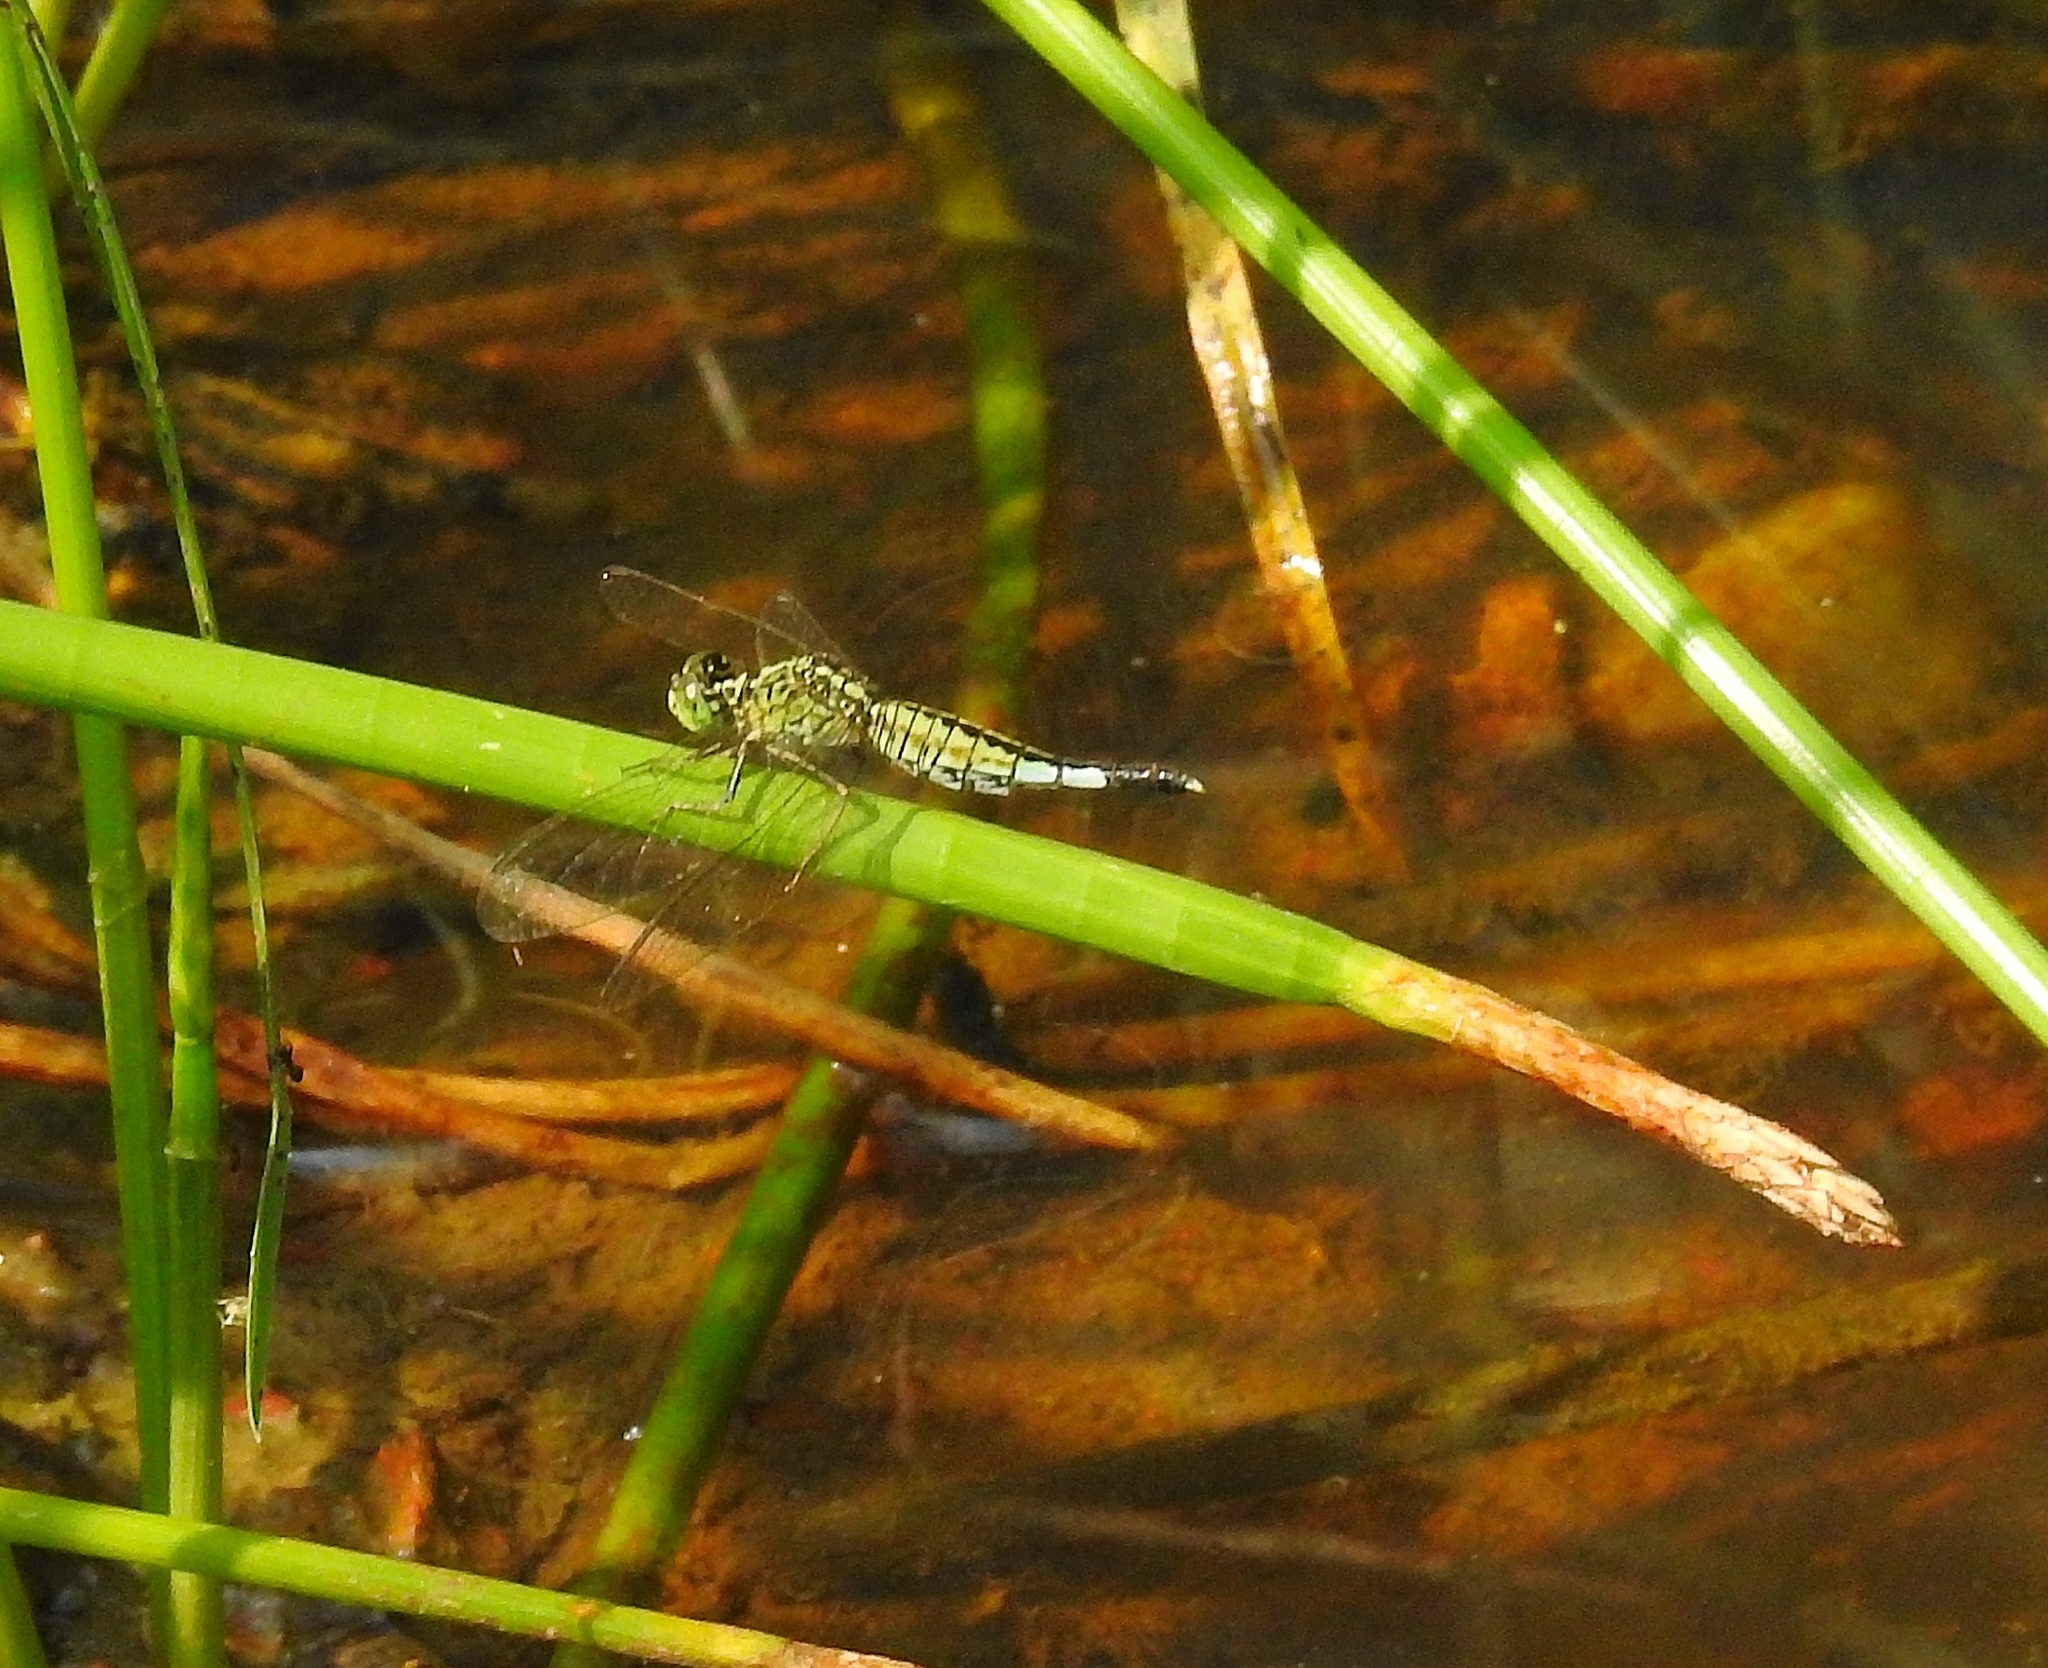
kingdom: Animalia
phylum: Arthropoda
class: Insecta
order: Odonata
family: Libellulidae
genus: Acisoma
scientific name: Acisoma panorpoides
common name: Asian pintail
